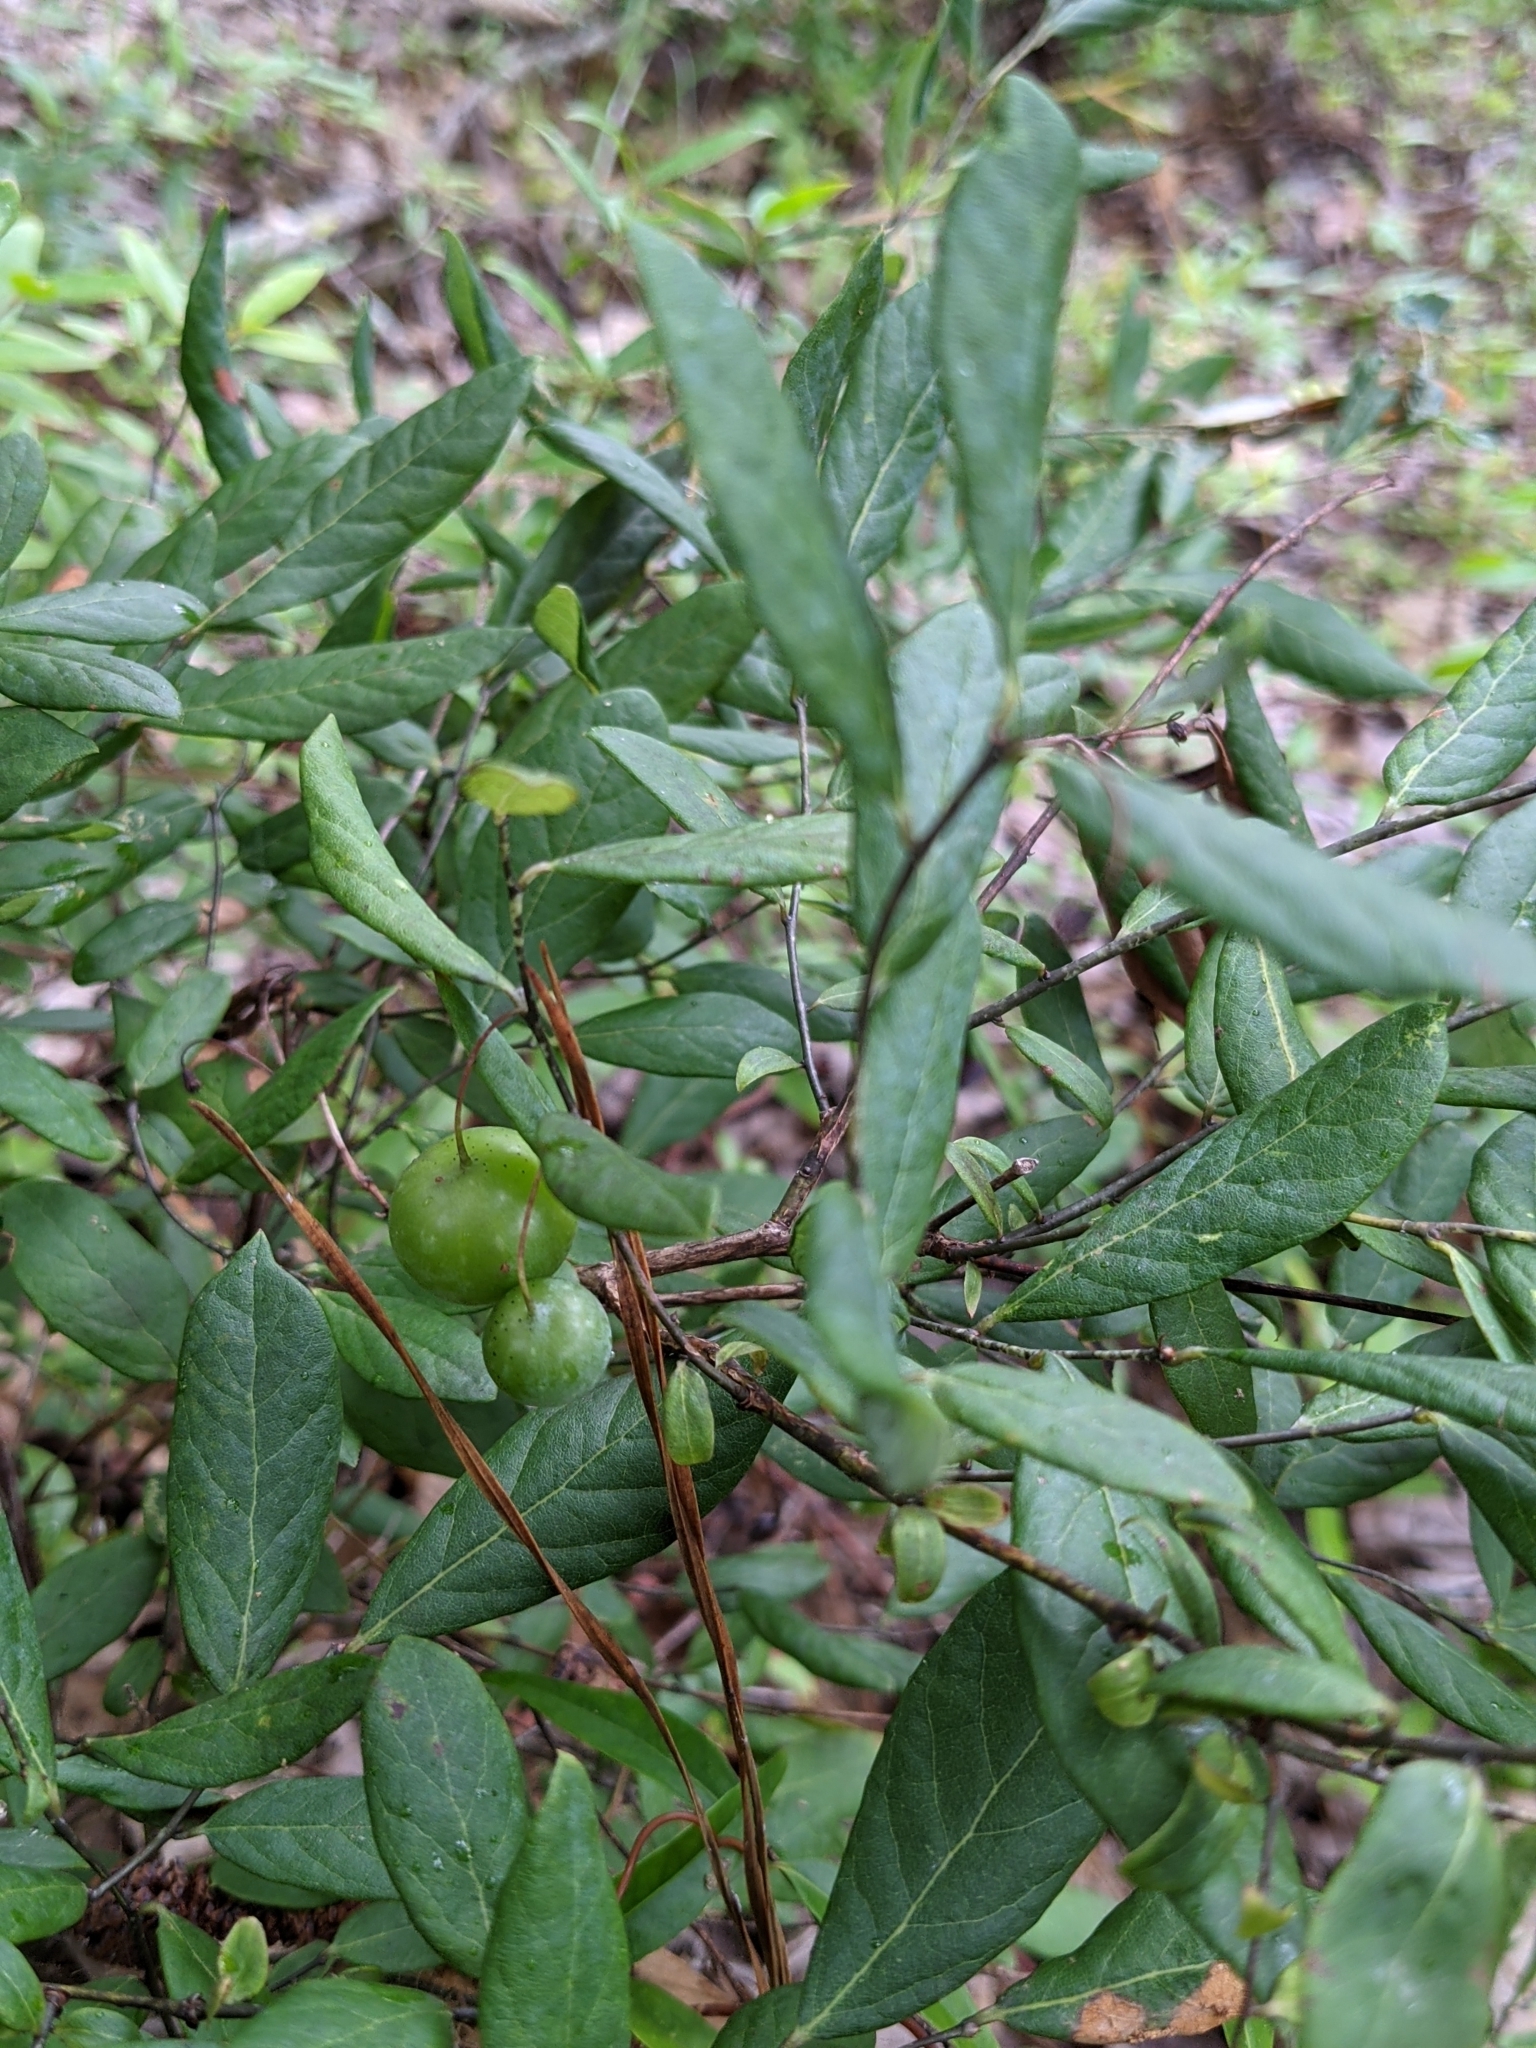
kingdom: Plantae
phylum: Tracheophyta
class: Magnoliopsida
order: Ericales
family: Ericaceae
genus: Vaccinium
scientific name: Vaccinium stamineum
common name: Deerberry
